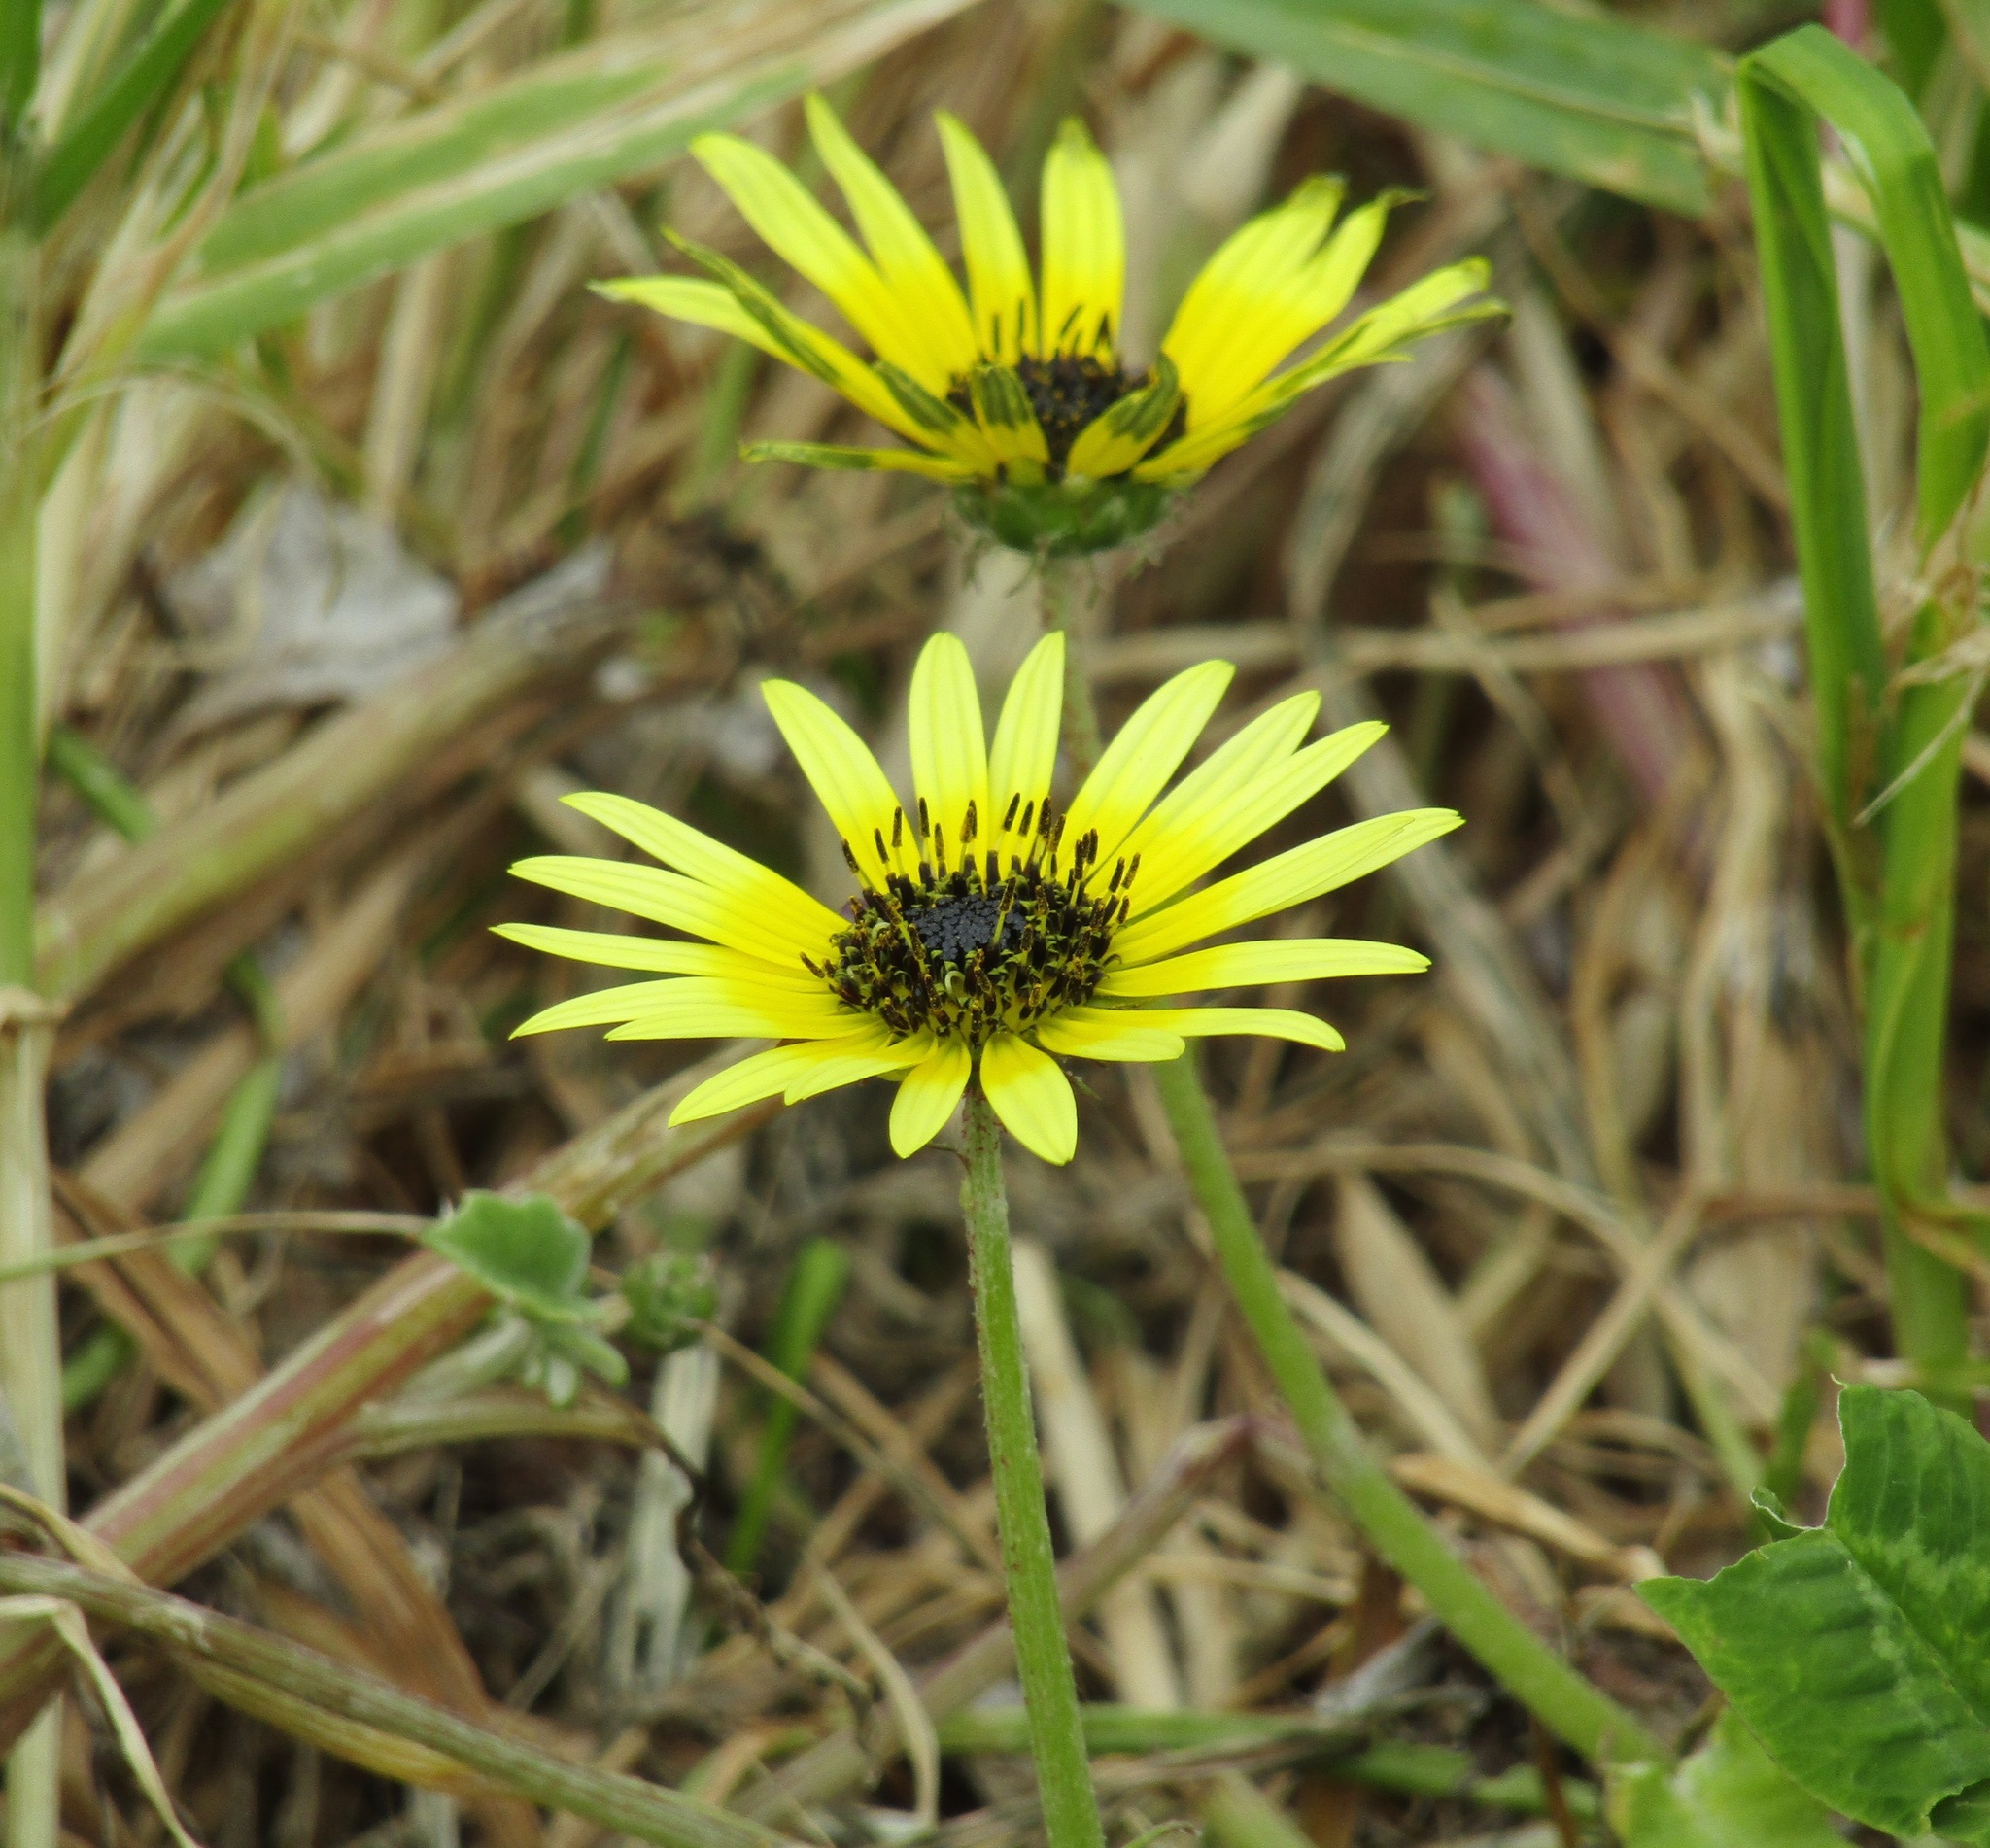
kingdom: Plantae
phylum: Tracheophyta
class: Magnoliopsida
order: Asterales
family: Asteraceae
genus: Arctotheca
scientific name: Arctotheca calendula
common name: Capeweed
